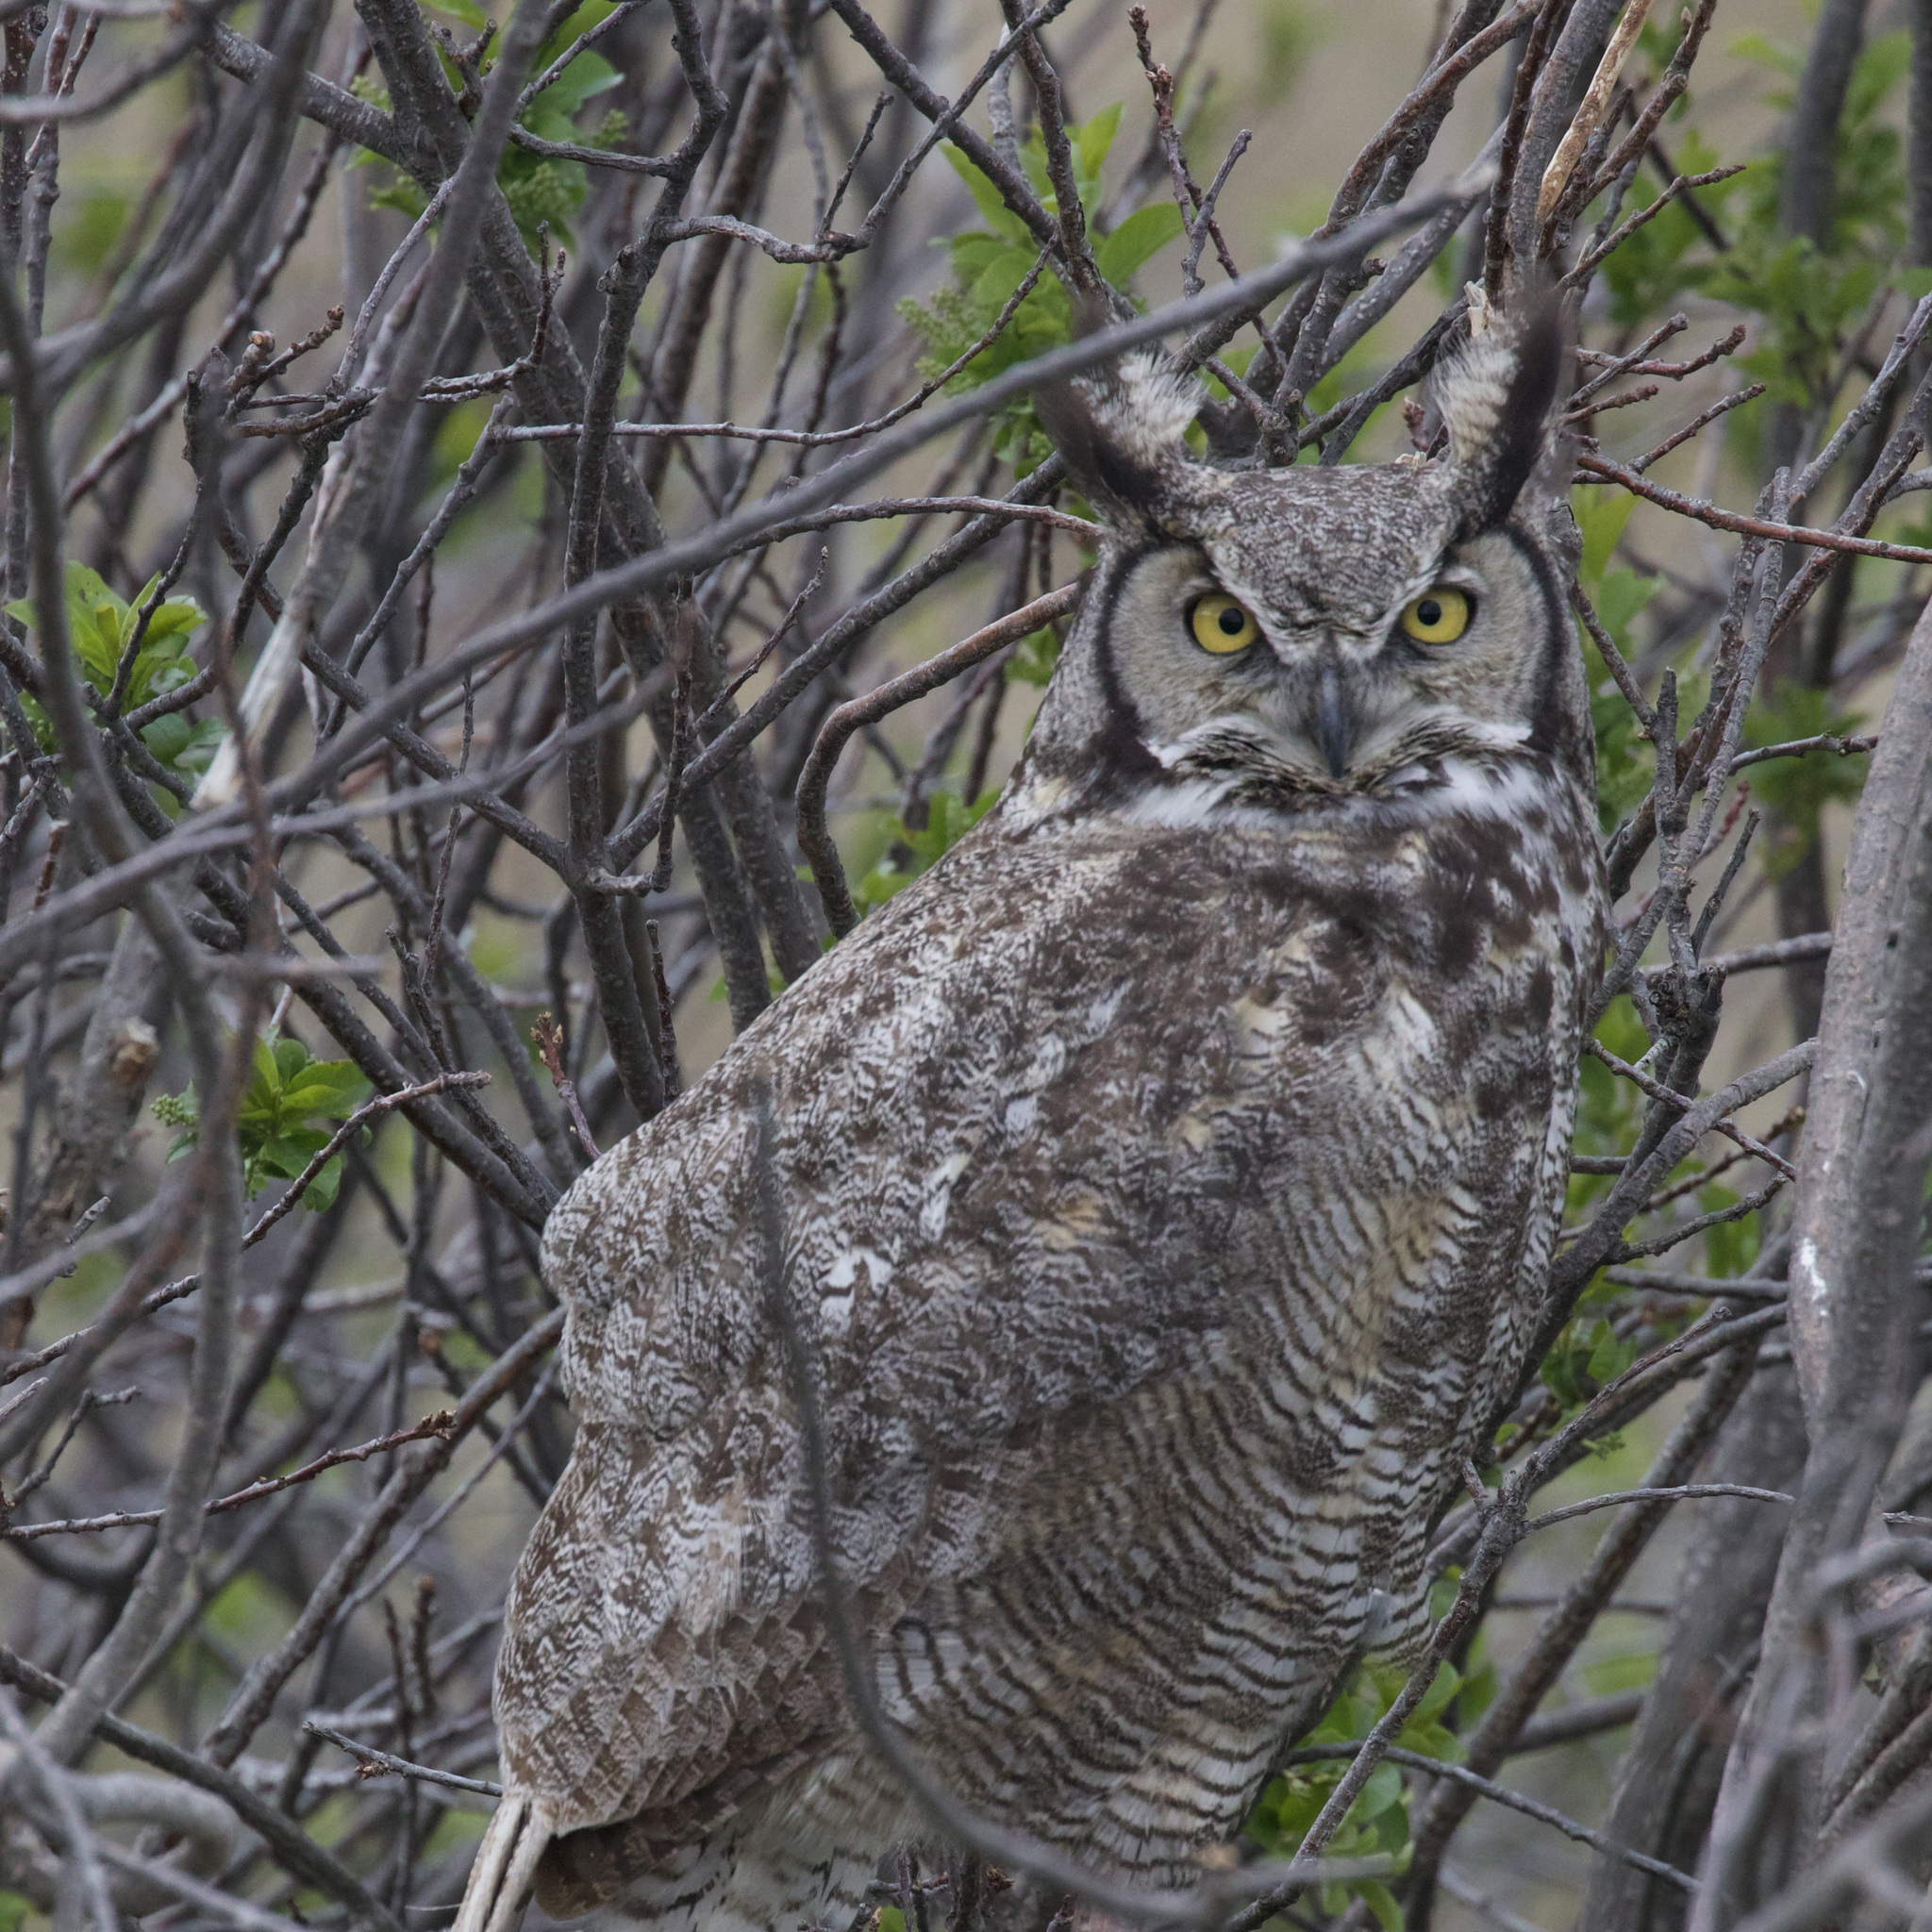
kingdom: Animalia
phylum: Chordata
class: Aves
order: Strigiformes
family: Strigidae
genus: Bubo
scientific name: Bubo virginianus
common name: Great horned owl
